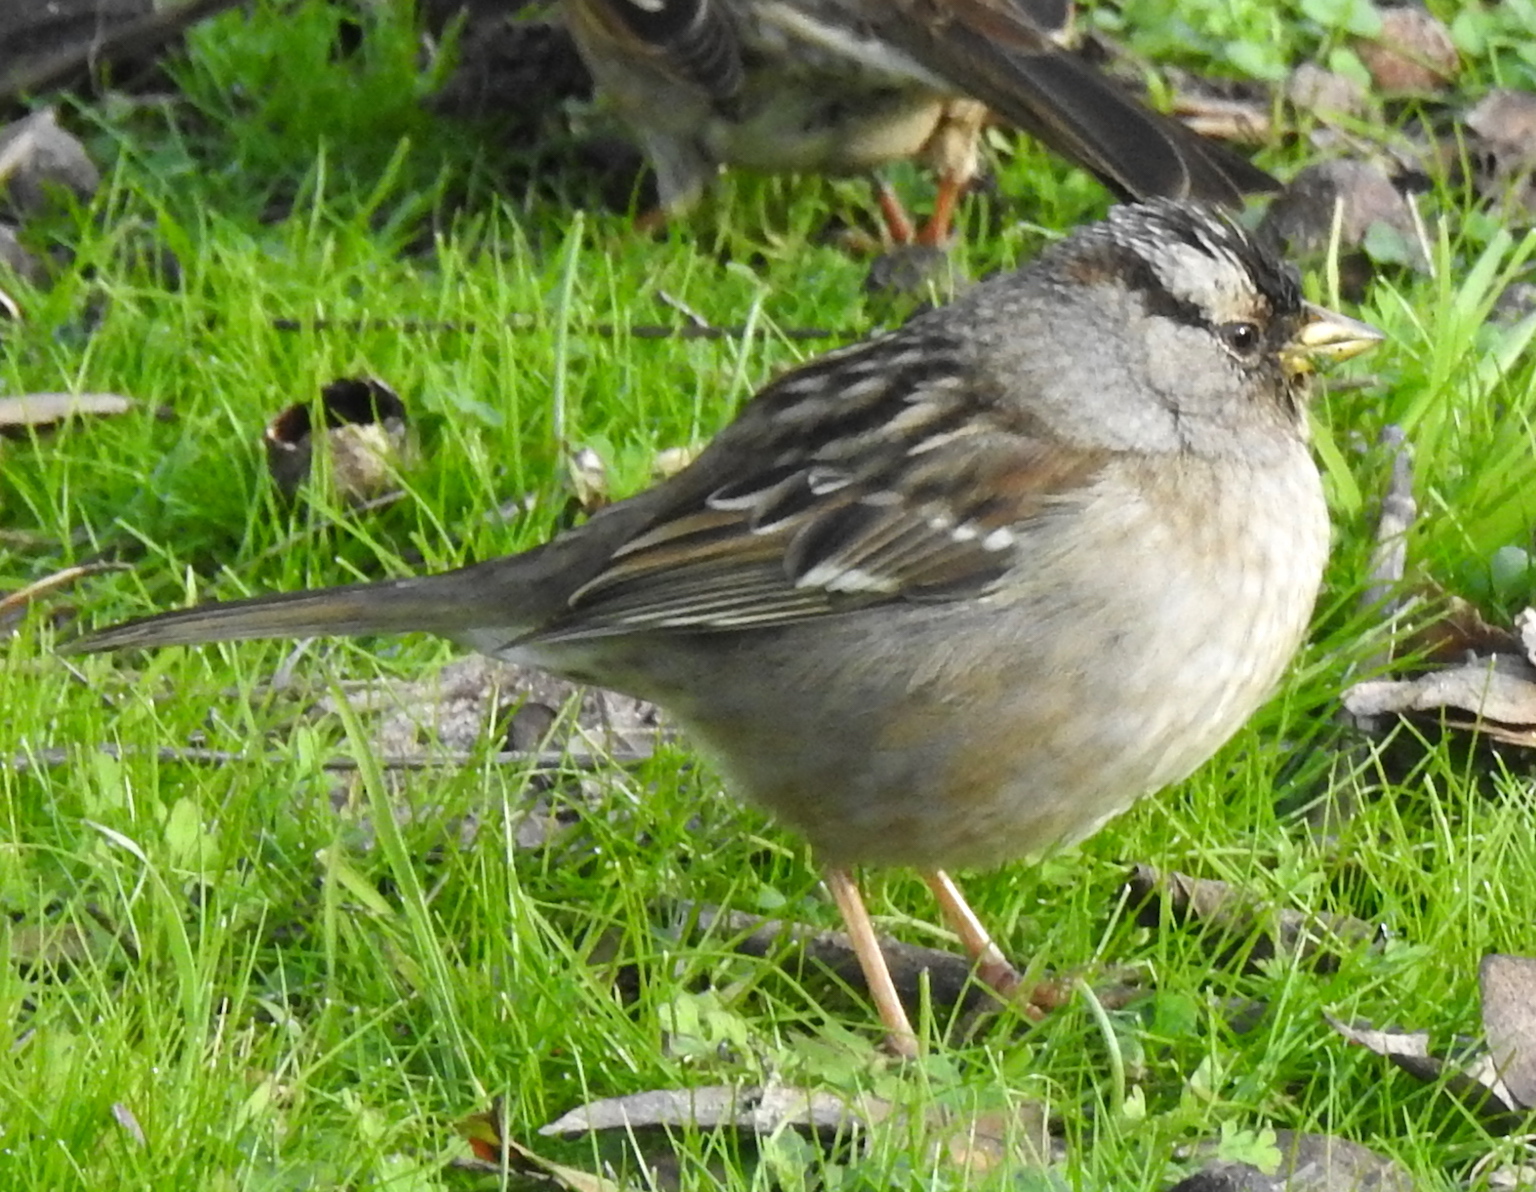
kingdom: Animalia
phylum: Chordata
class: Aves
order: Passeriformes
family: Passerellidae
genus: Zonotrichia
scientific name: Zonotrichia leucophrys
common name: White-crowned sparrow
